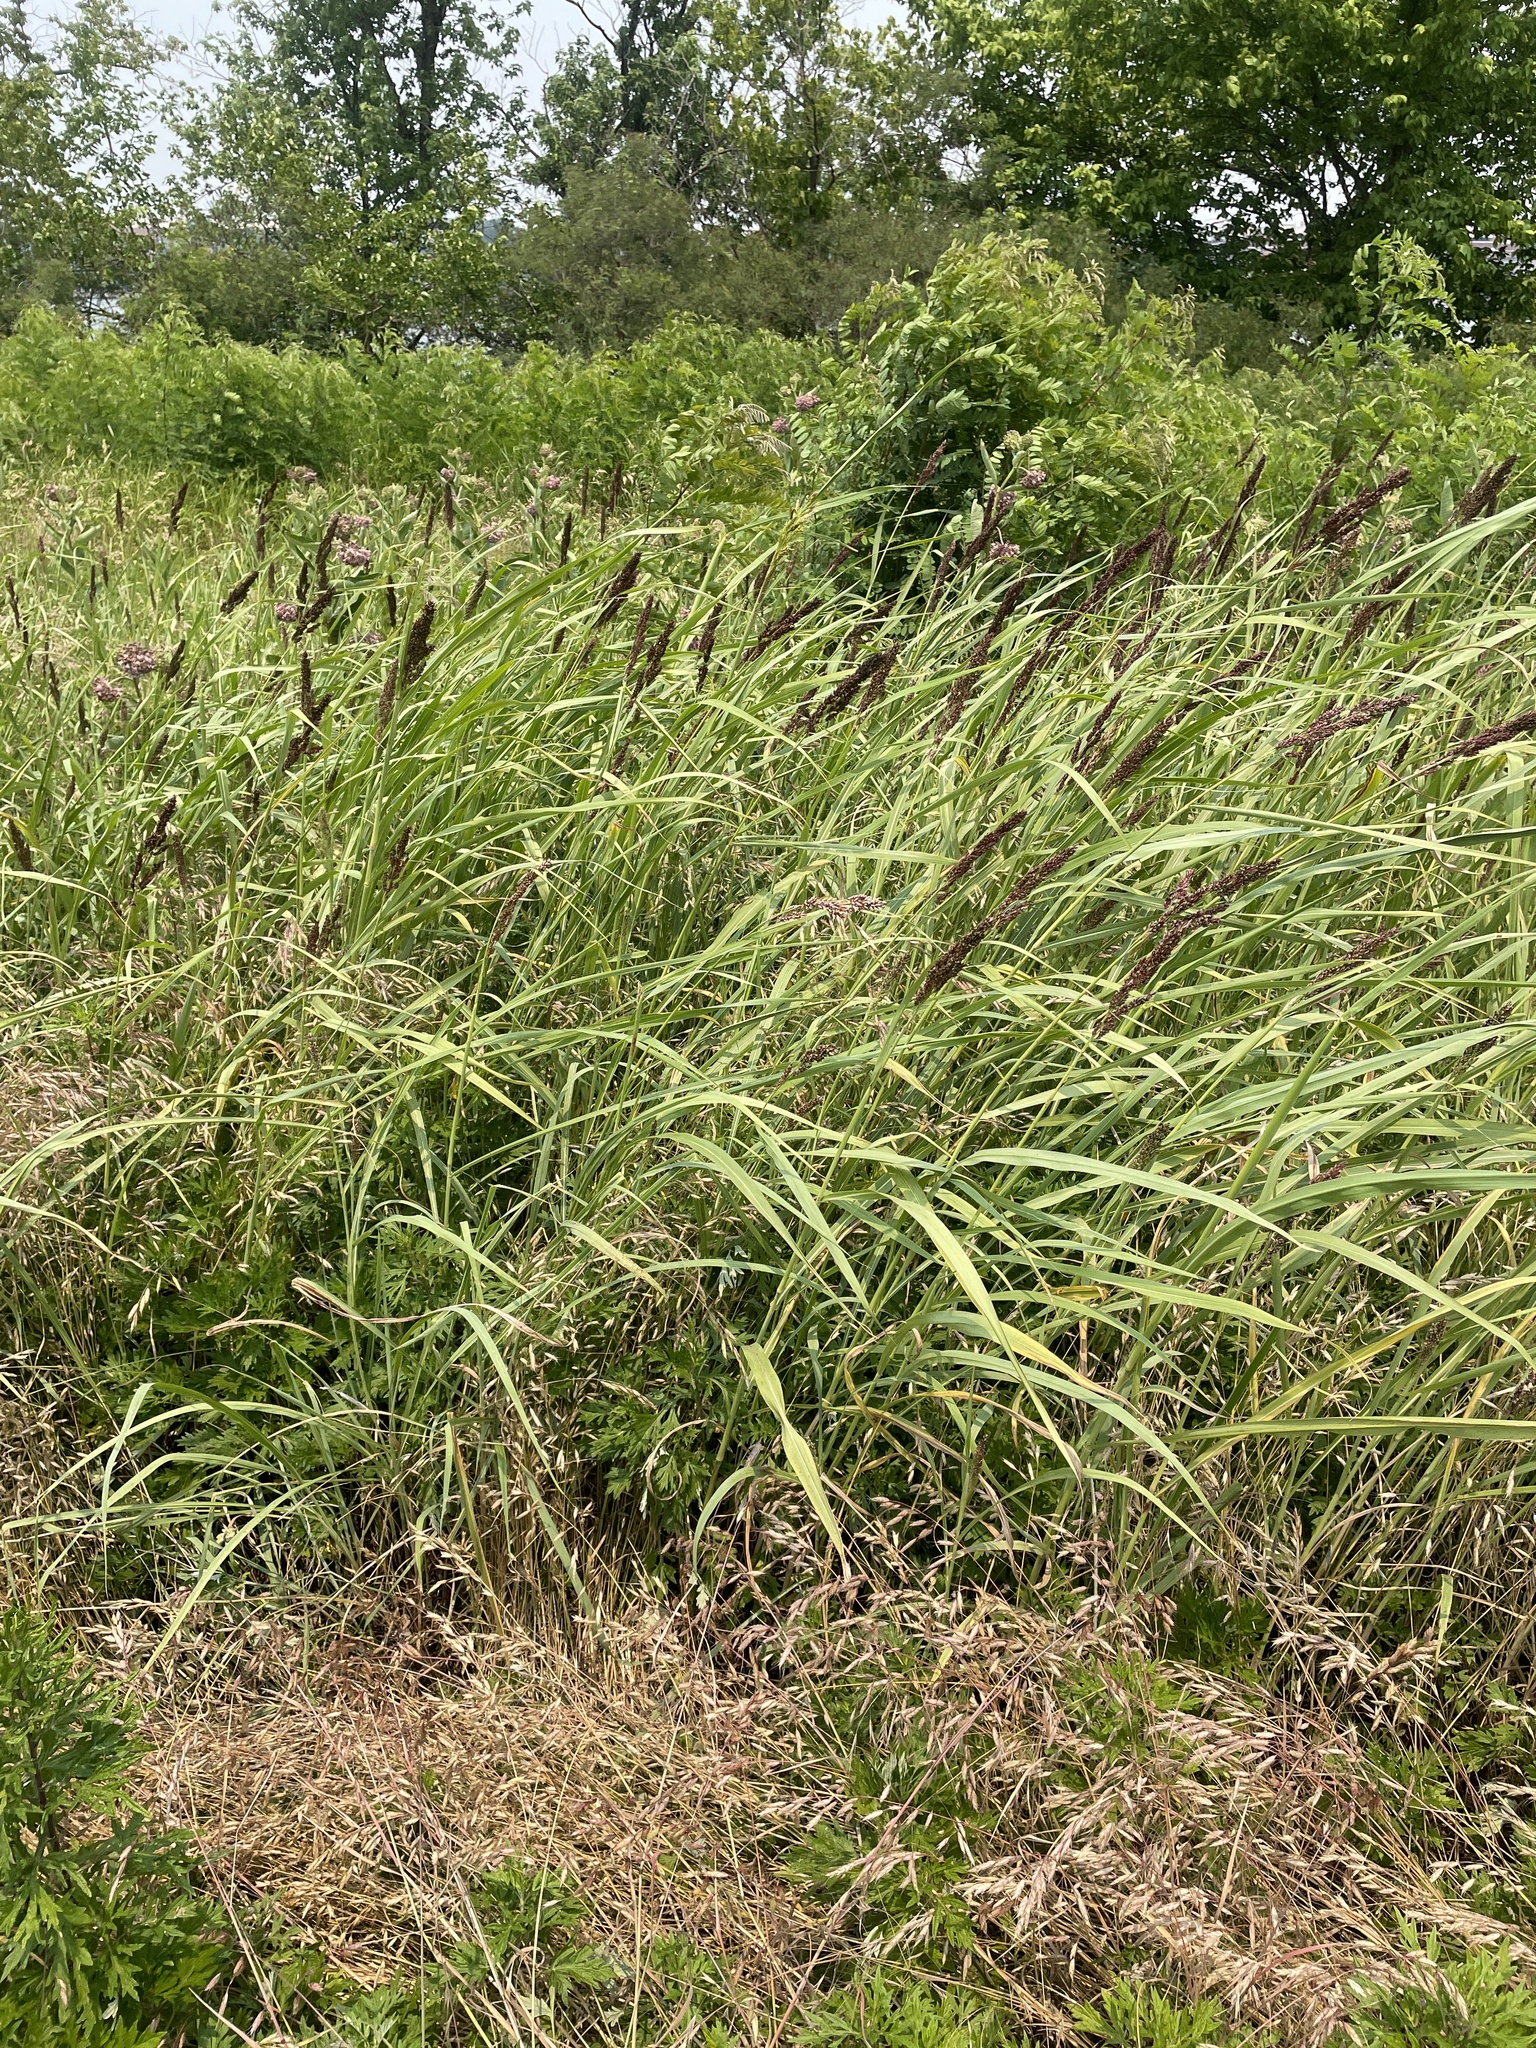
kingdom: Plantae
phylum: Tracheophyta
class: Liliopsida
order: Poales
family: Poaceae
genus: Sorghum
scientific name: Sorghum halepense
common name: Johnson-grass
